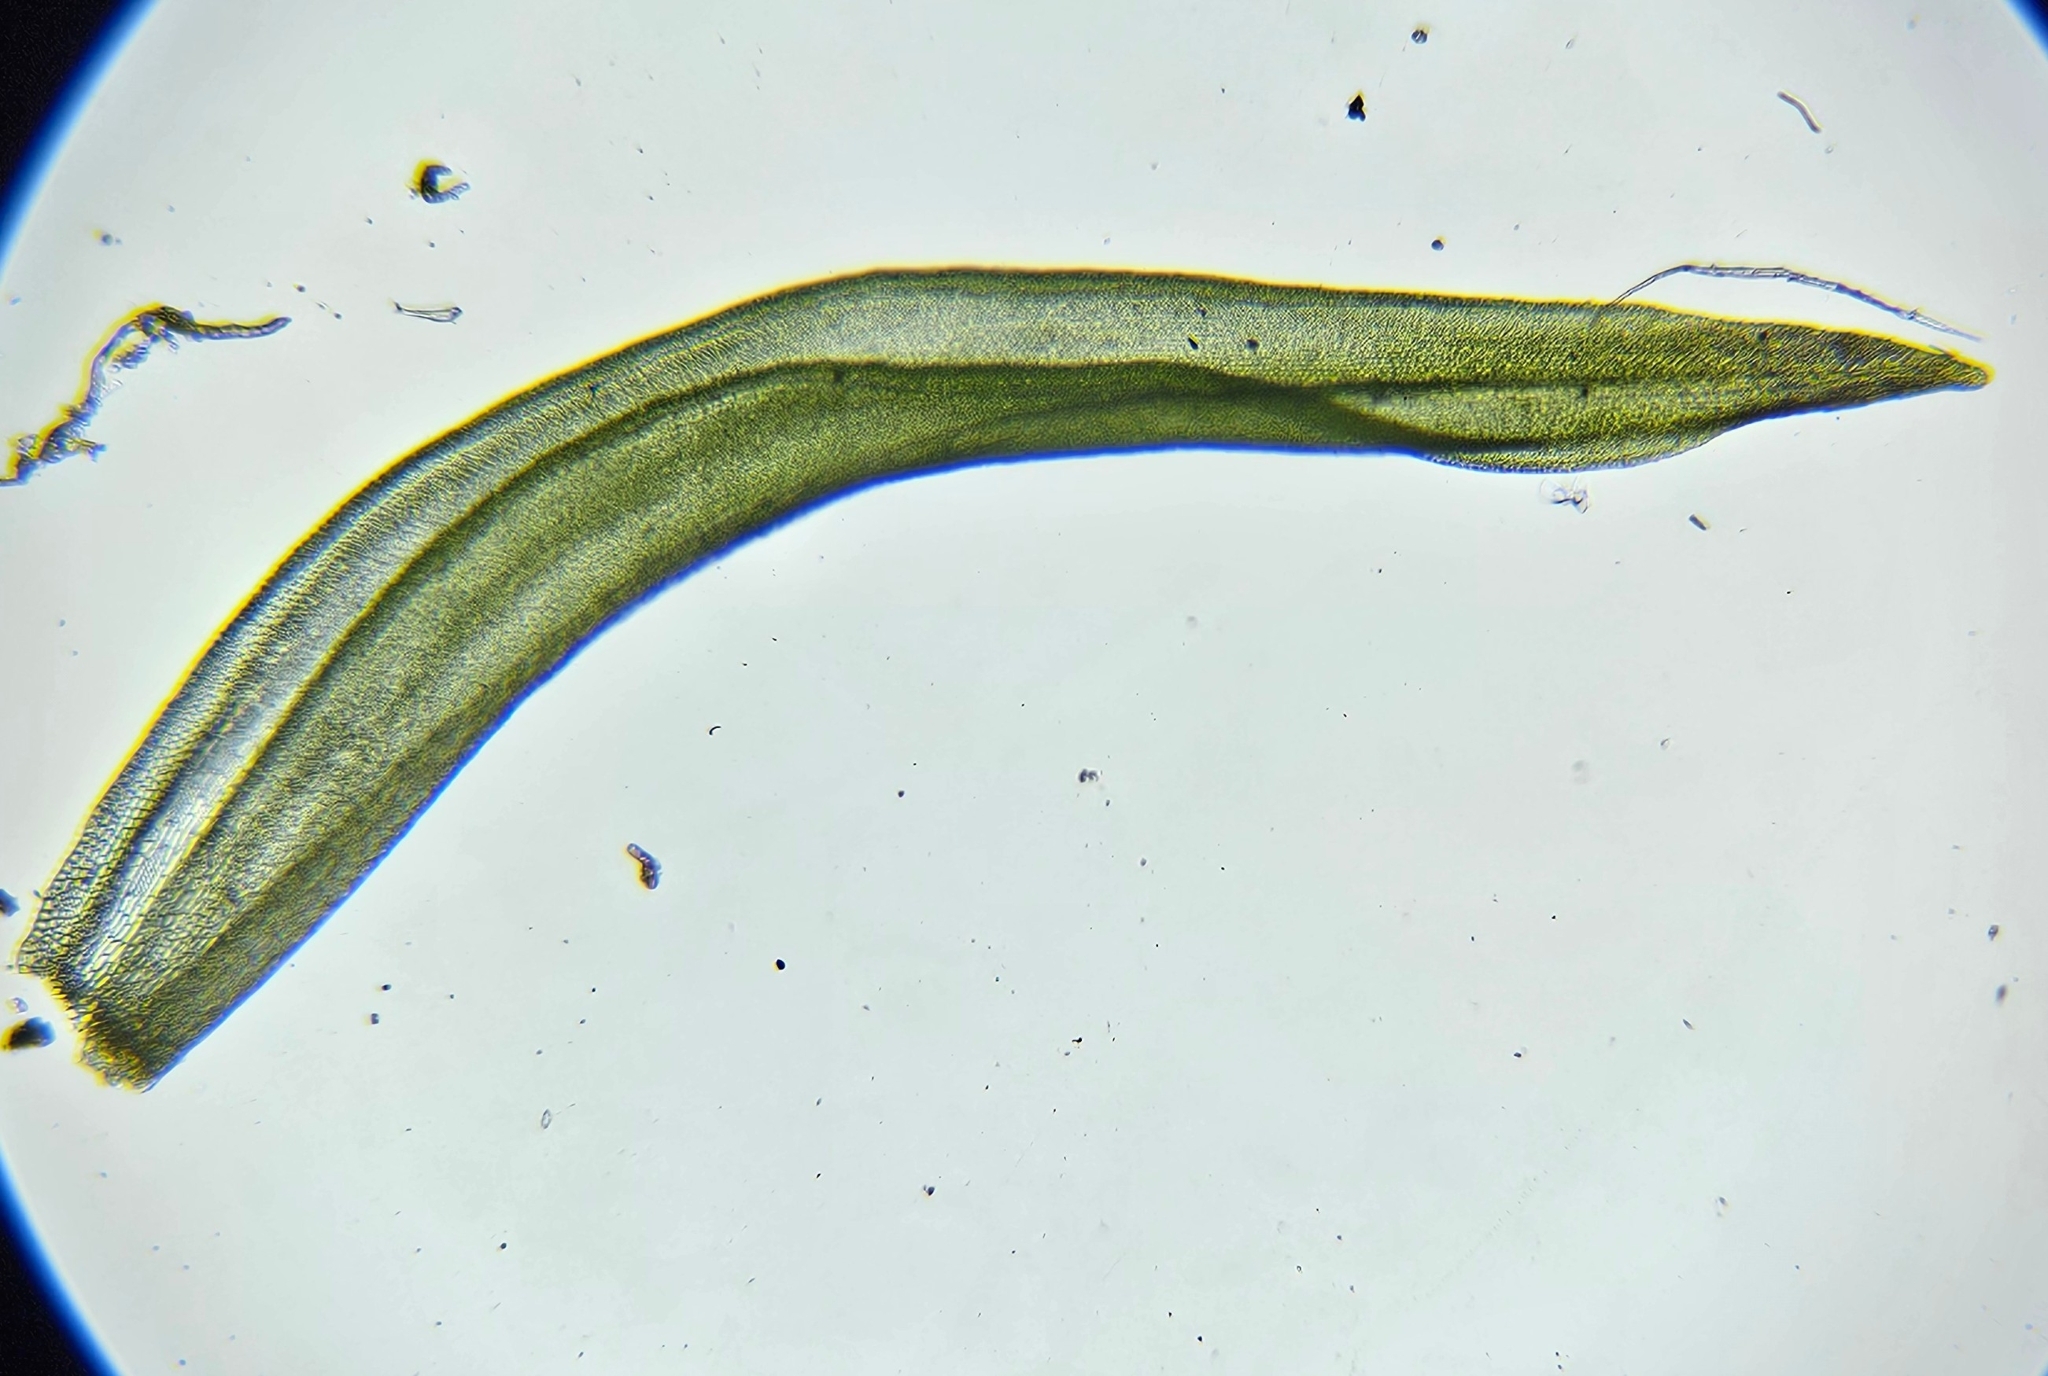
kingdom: Plantae
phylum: Bryophyta
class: Bryopsida
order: Orthotrichales
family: Orthotrichaceae
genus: Lewinskya
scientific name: Lewinskya affinis
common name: Wood bristle-moss
